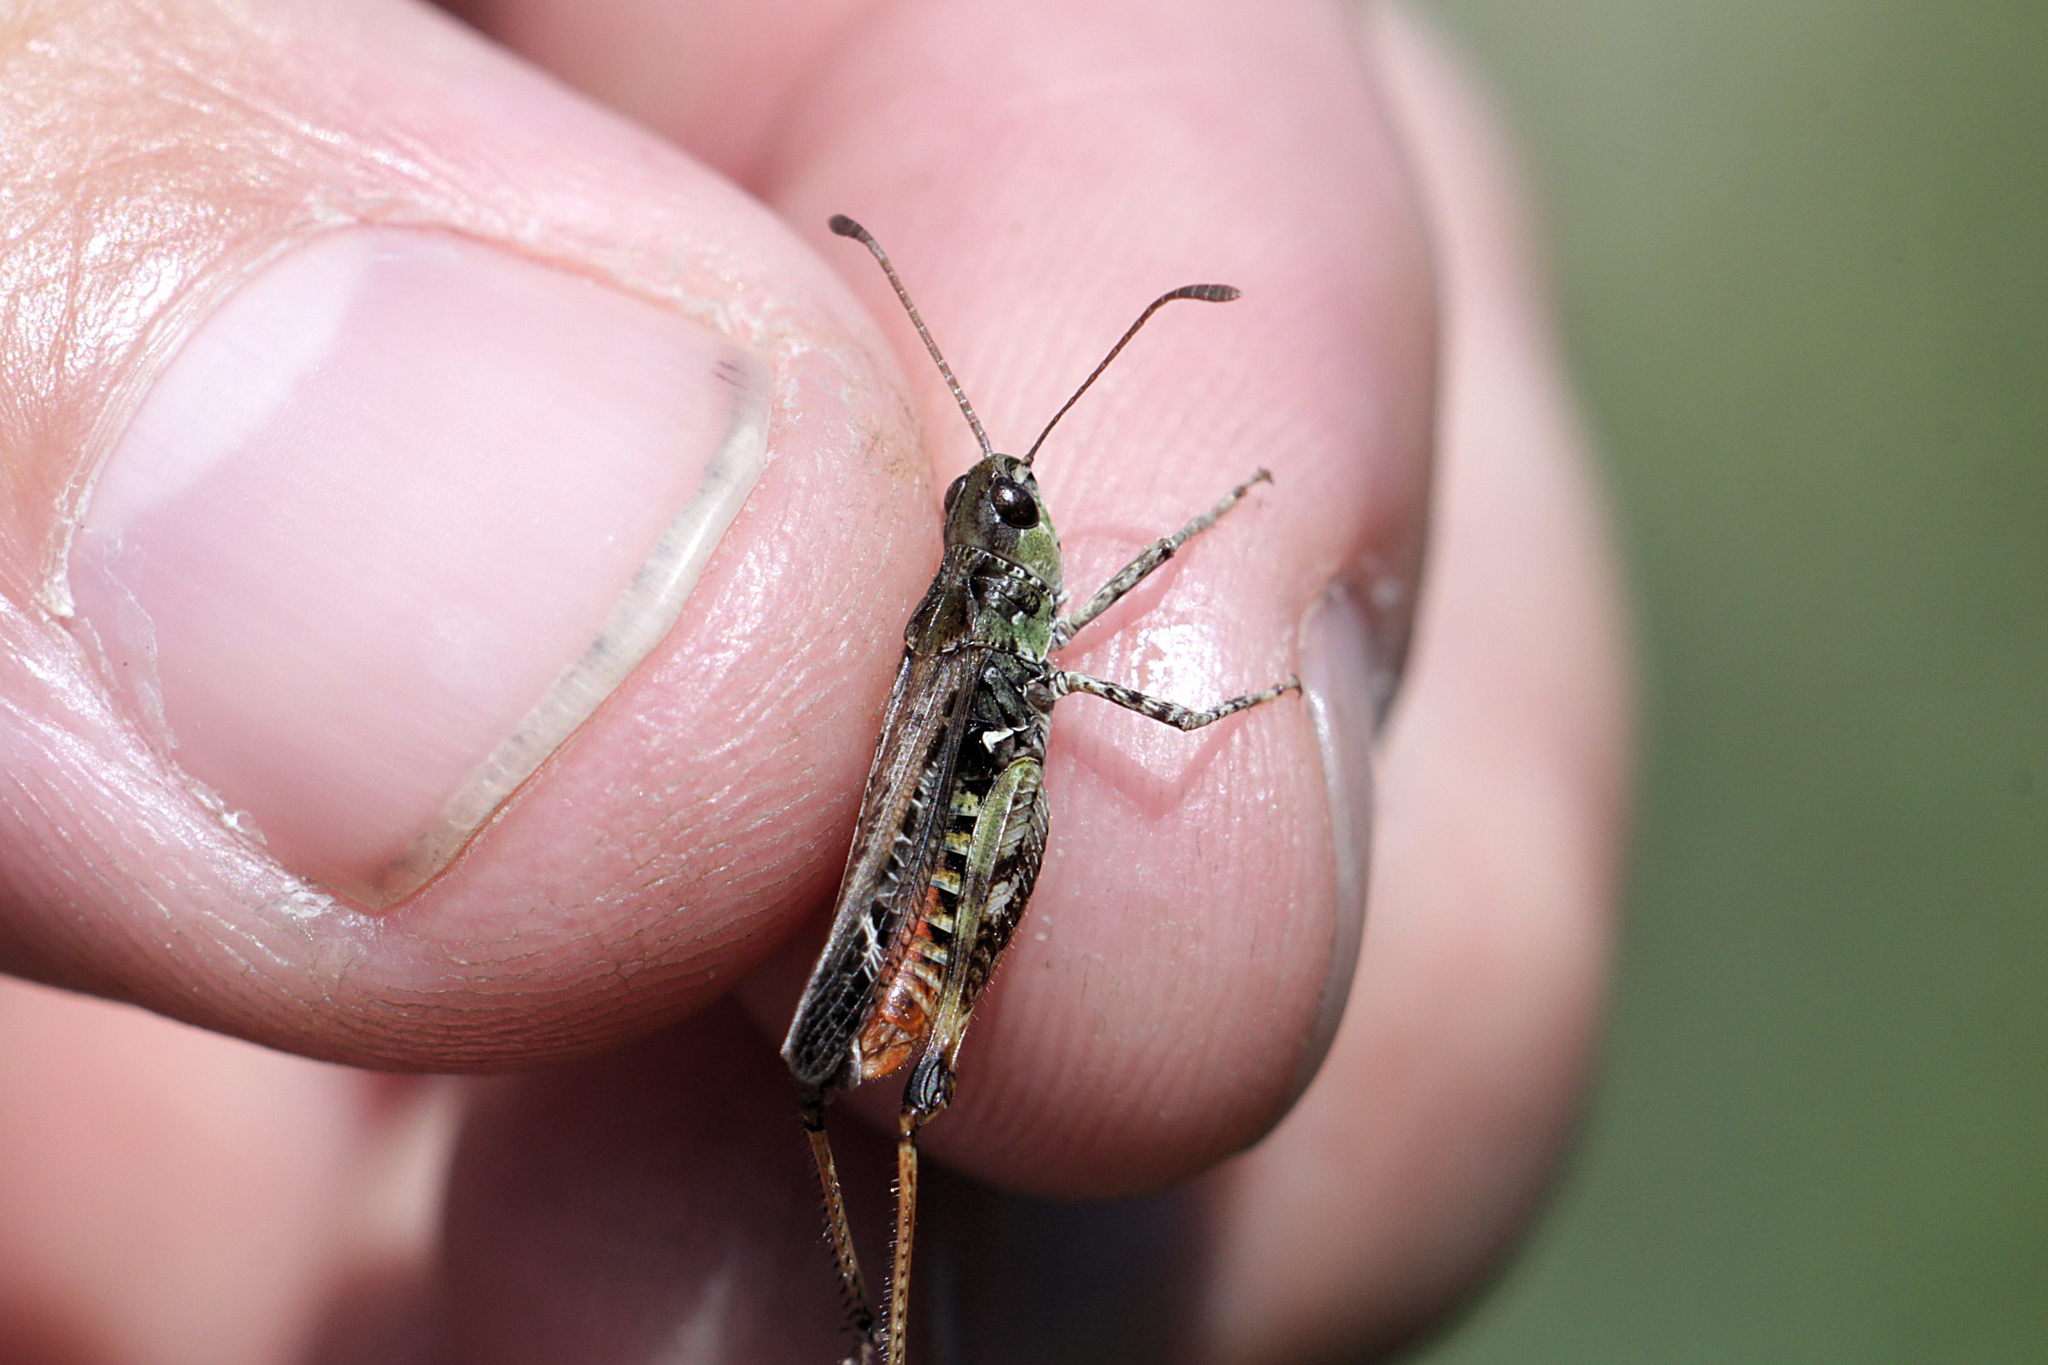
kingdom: Animalia
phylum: Arthropoda
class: Insecta
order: Orthoptera
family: Acrididae
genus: Myrmeleotettix
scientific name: Myrmeleotettix maculatus
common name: Mottled grasshopper
